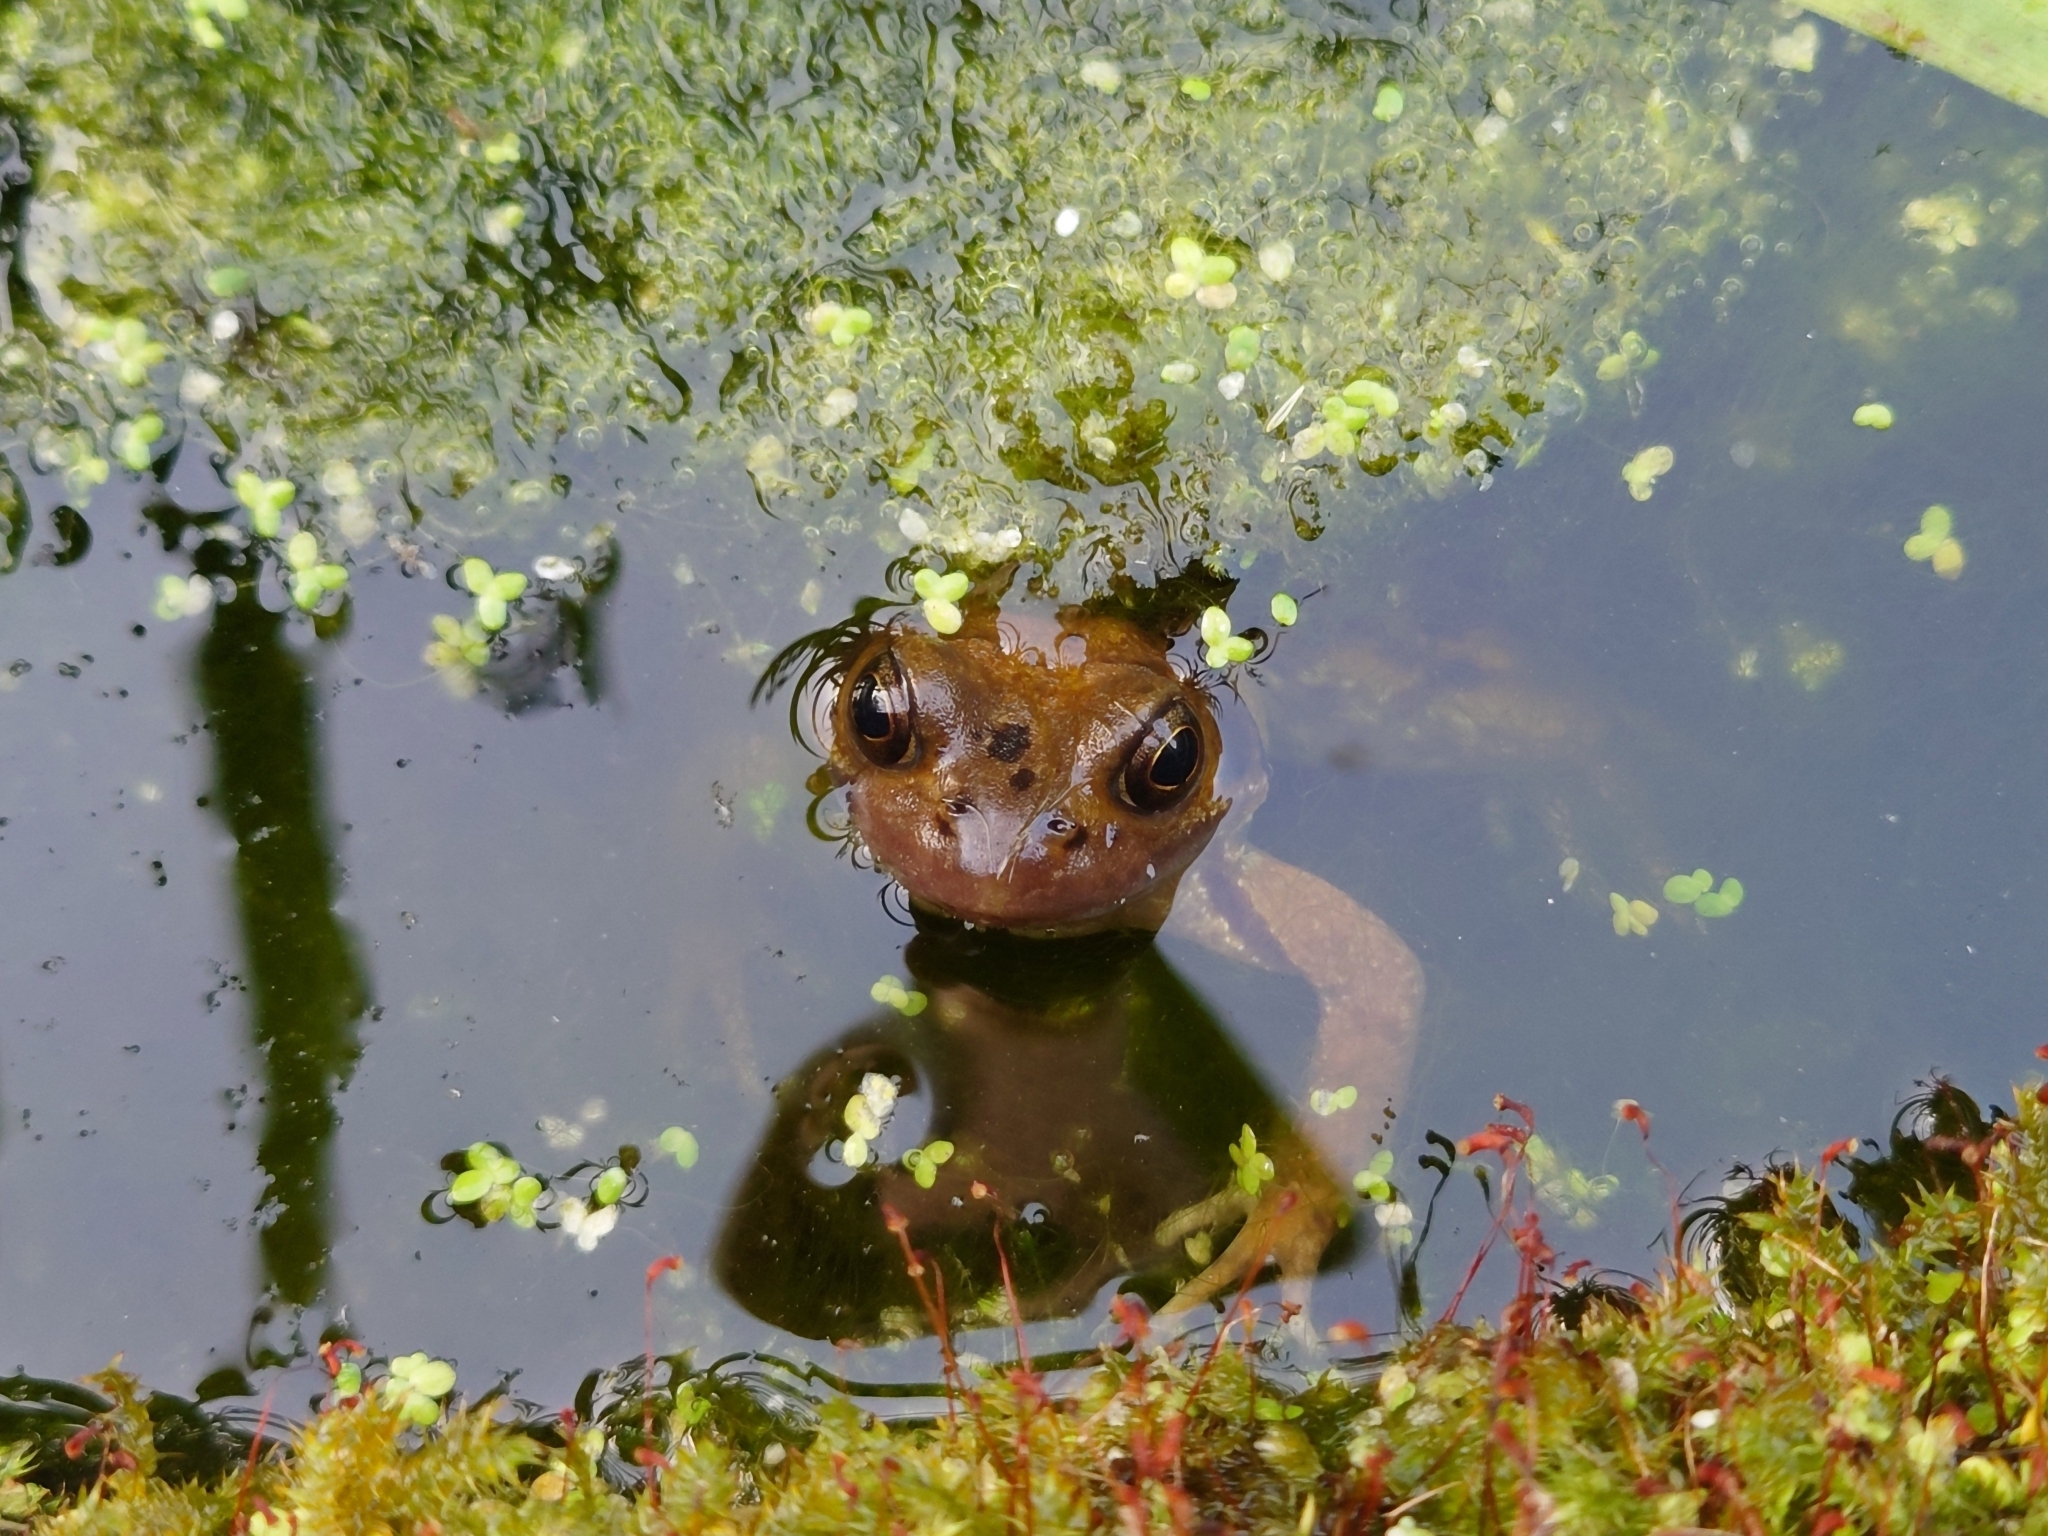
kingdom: Animalia
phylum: Chordata
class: Amphibia
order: Anura
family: Ranidae
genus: Rana
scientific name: Rana temporaria
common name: Common frog
